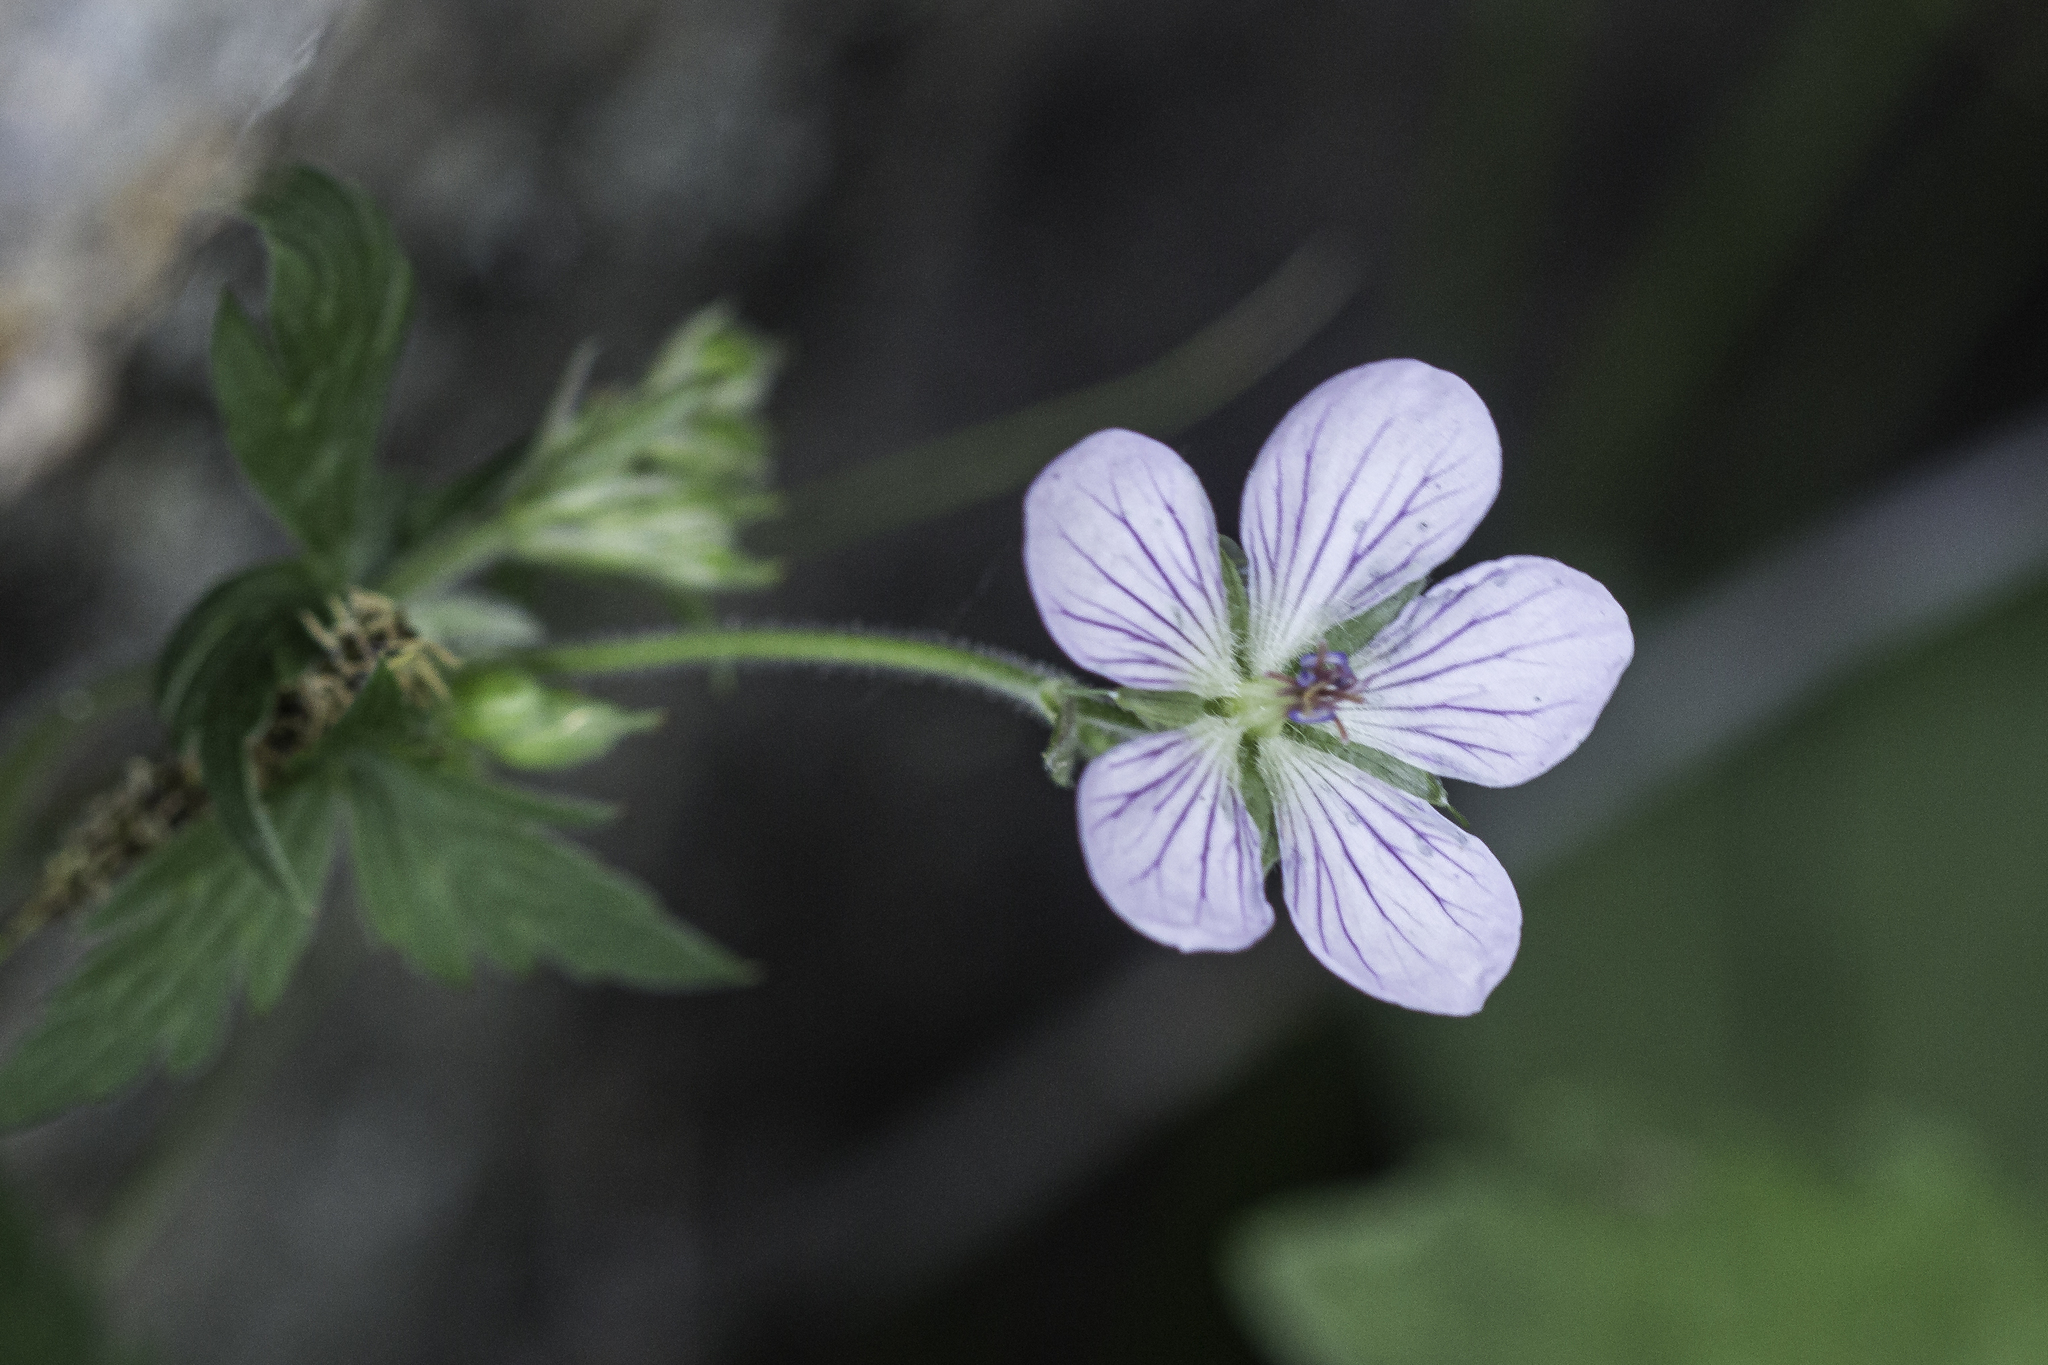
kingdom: Plantae
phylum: Tracheophyta
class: Magnoliopsida
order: Geraniales
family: Geraniaceae
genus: Geranium
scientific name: Geranium richardsonii
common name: Richardson's crane's-bill
